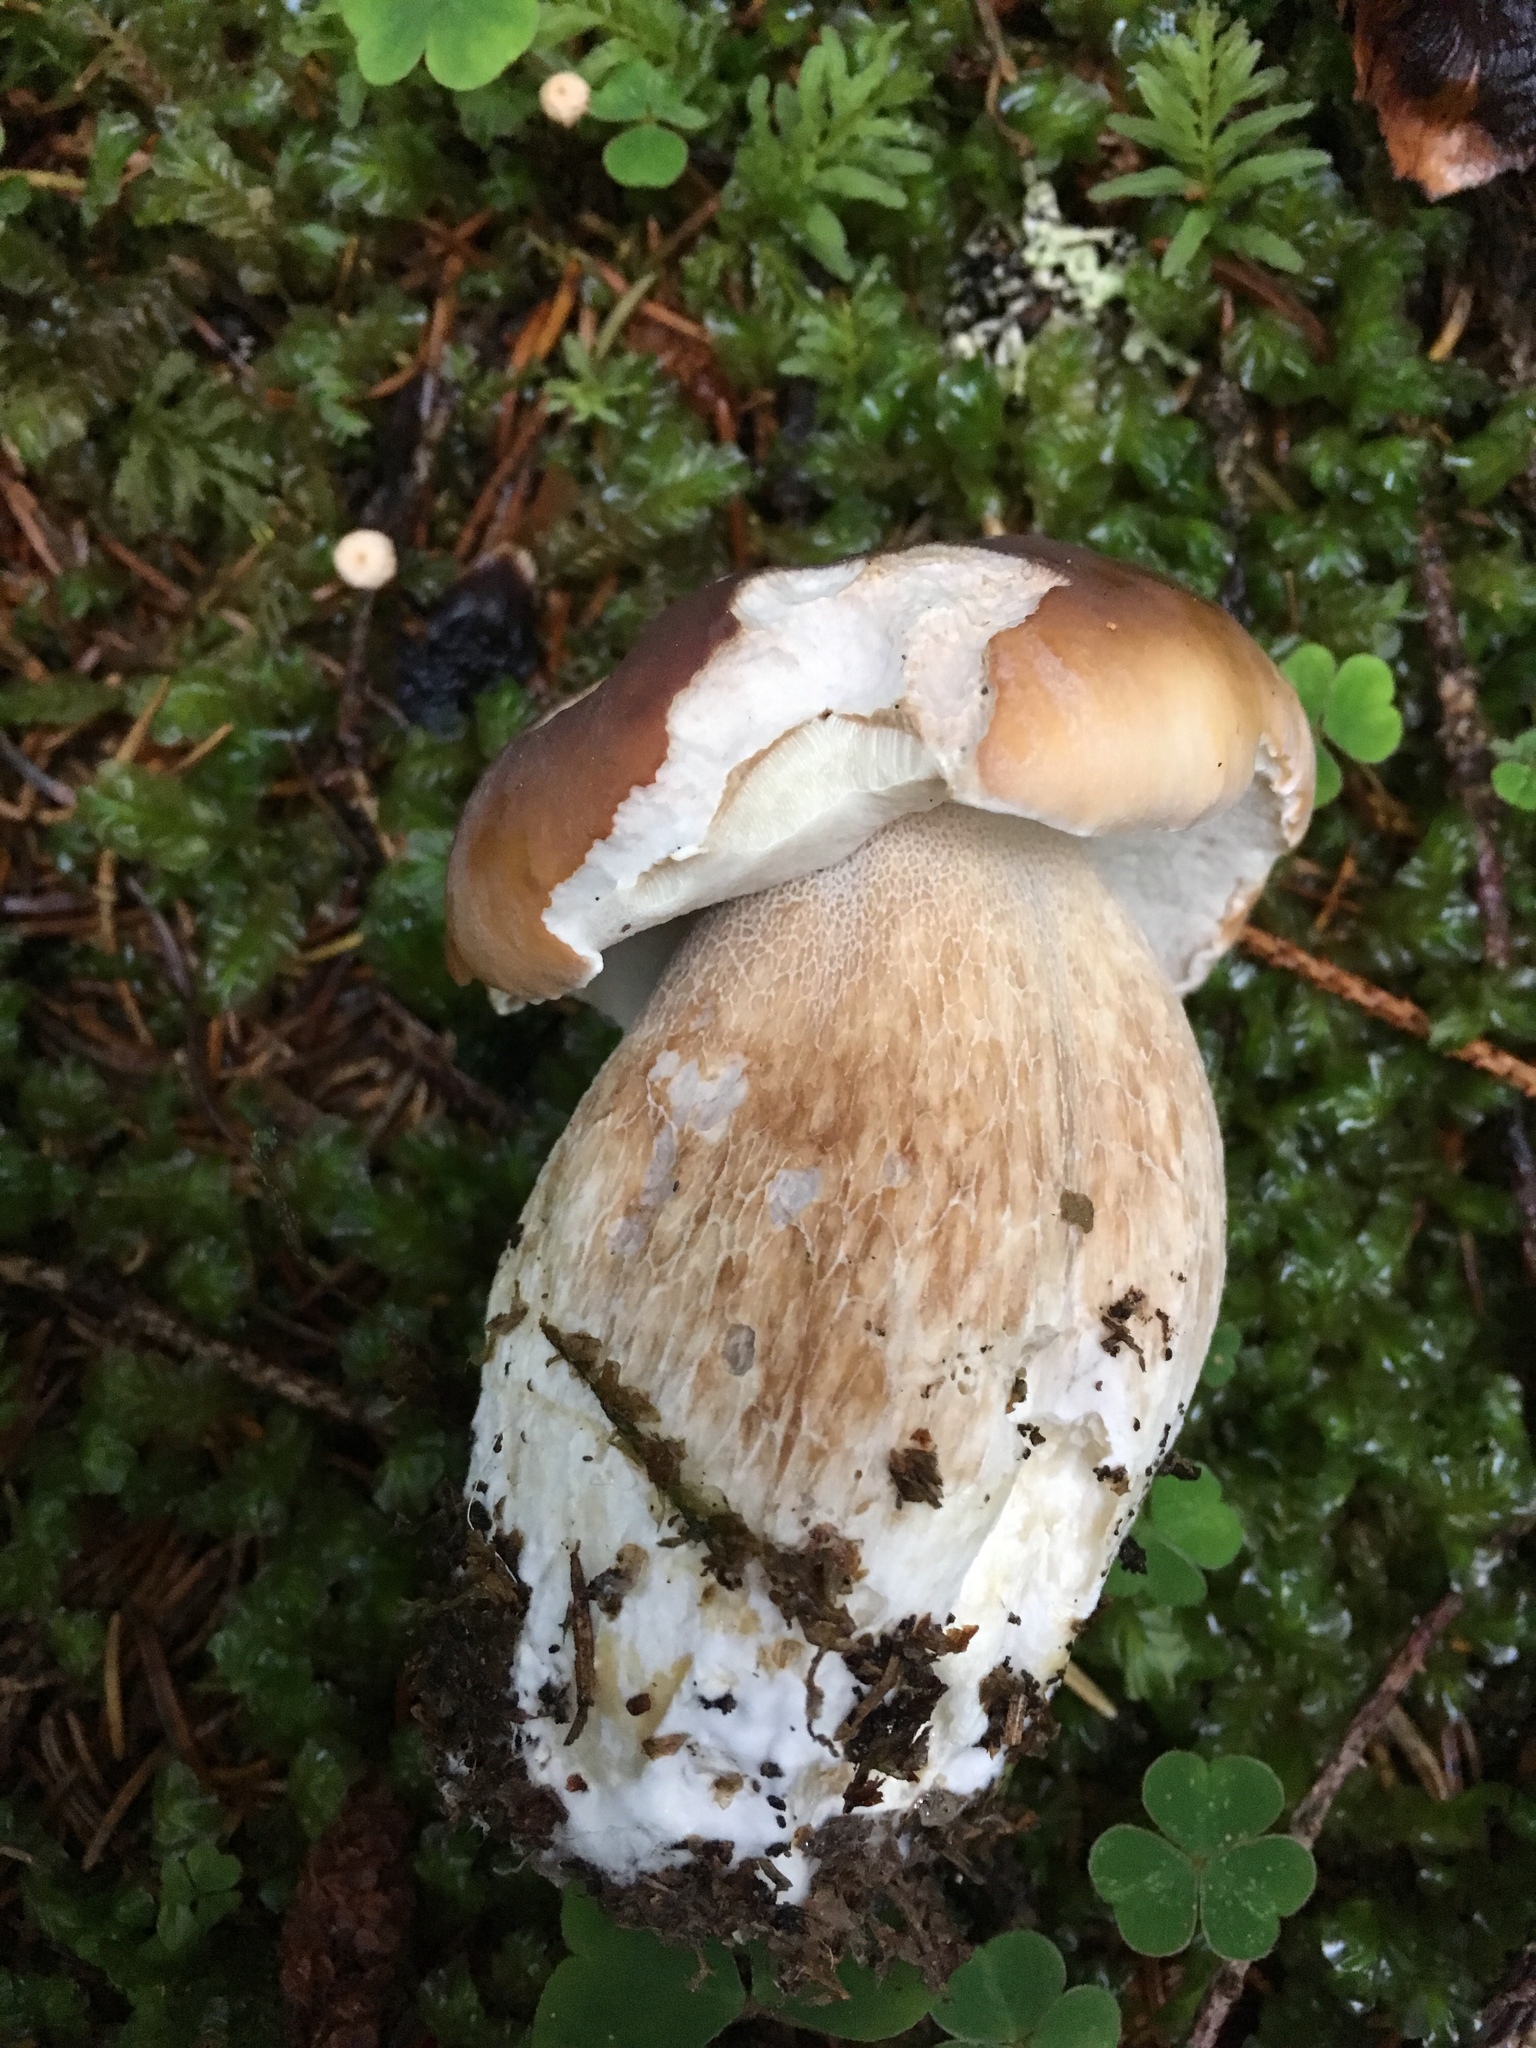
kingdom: Fungi
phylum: Basidiomycota
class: Agaricomycetes
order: Boletales
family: Boletaceae
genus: Boletus
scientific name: Boletus edulis
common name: Cep
